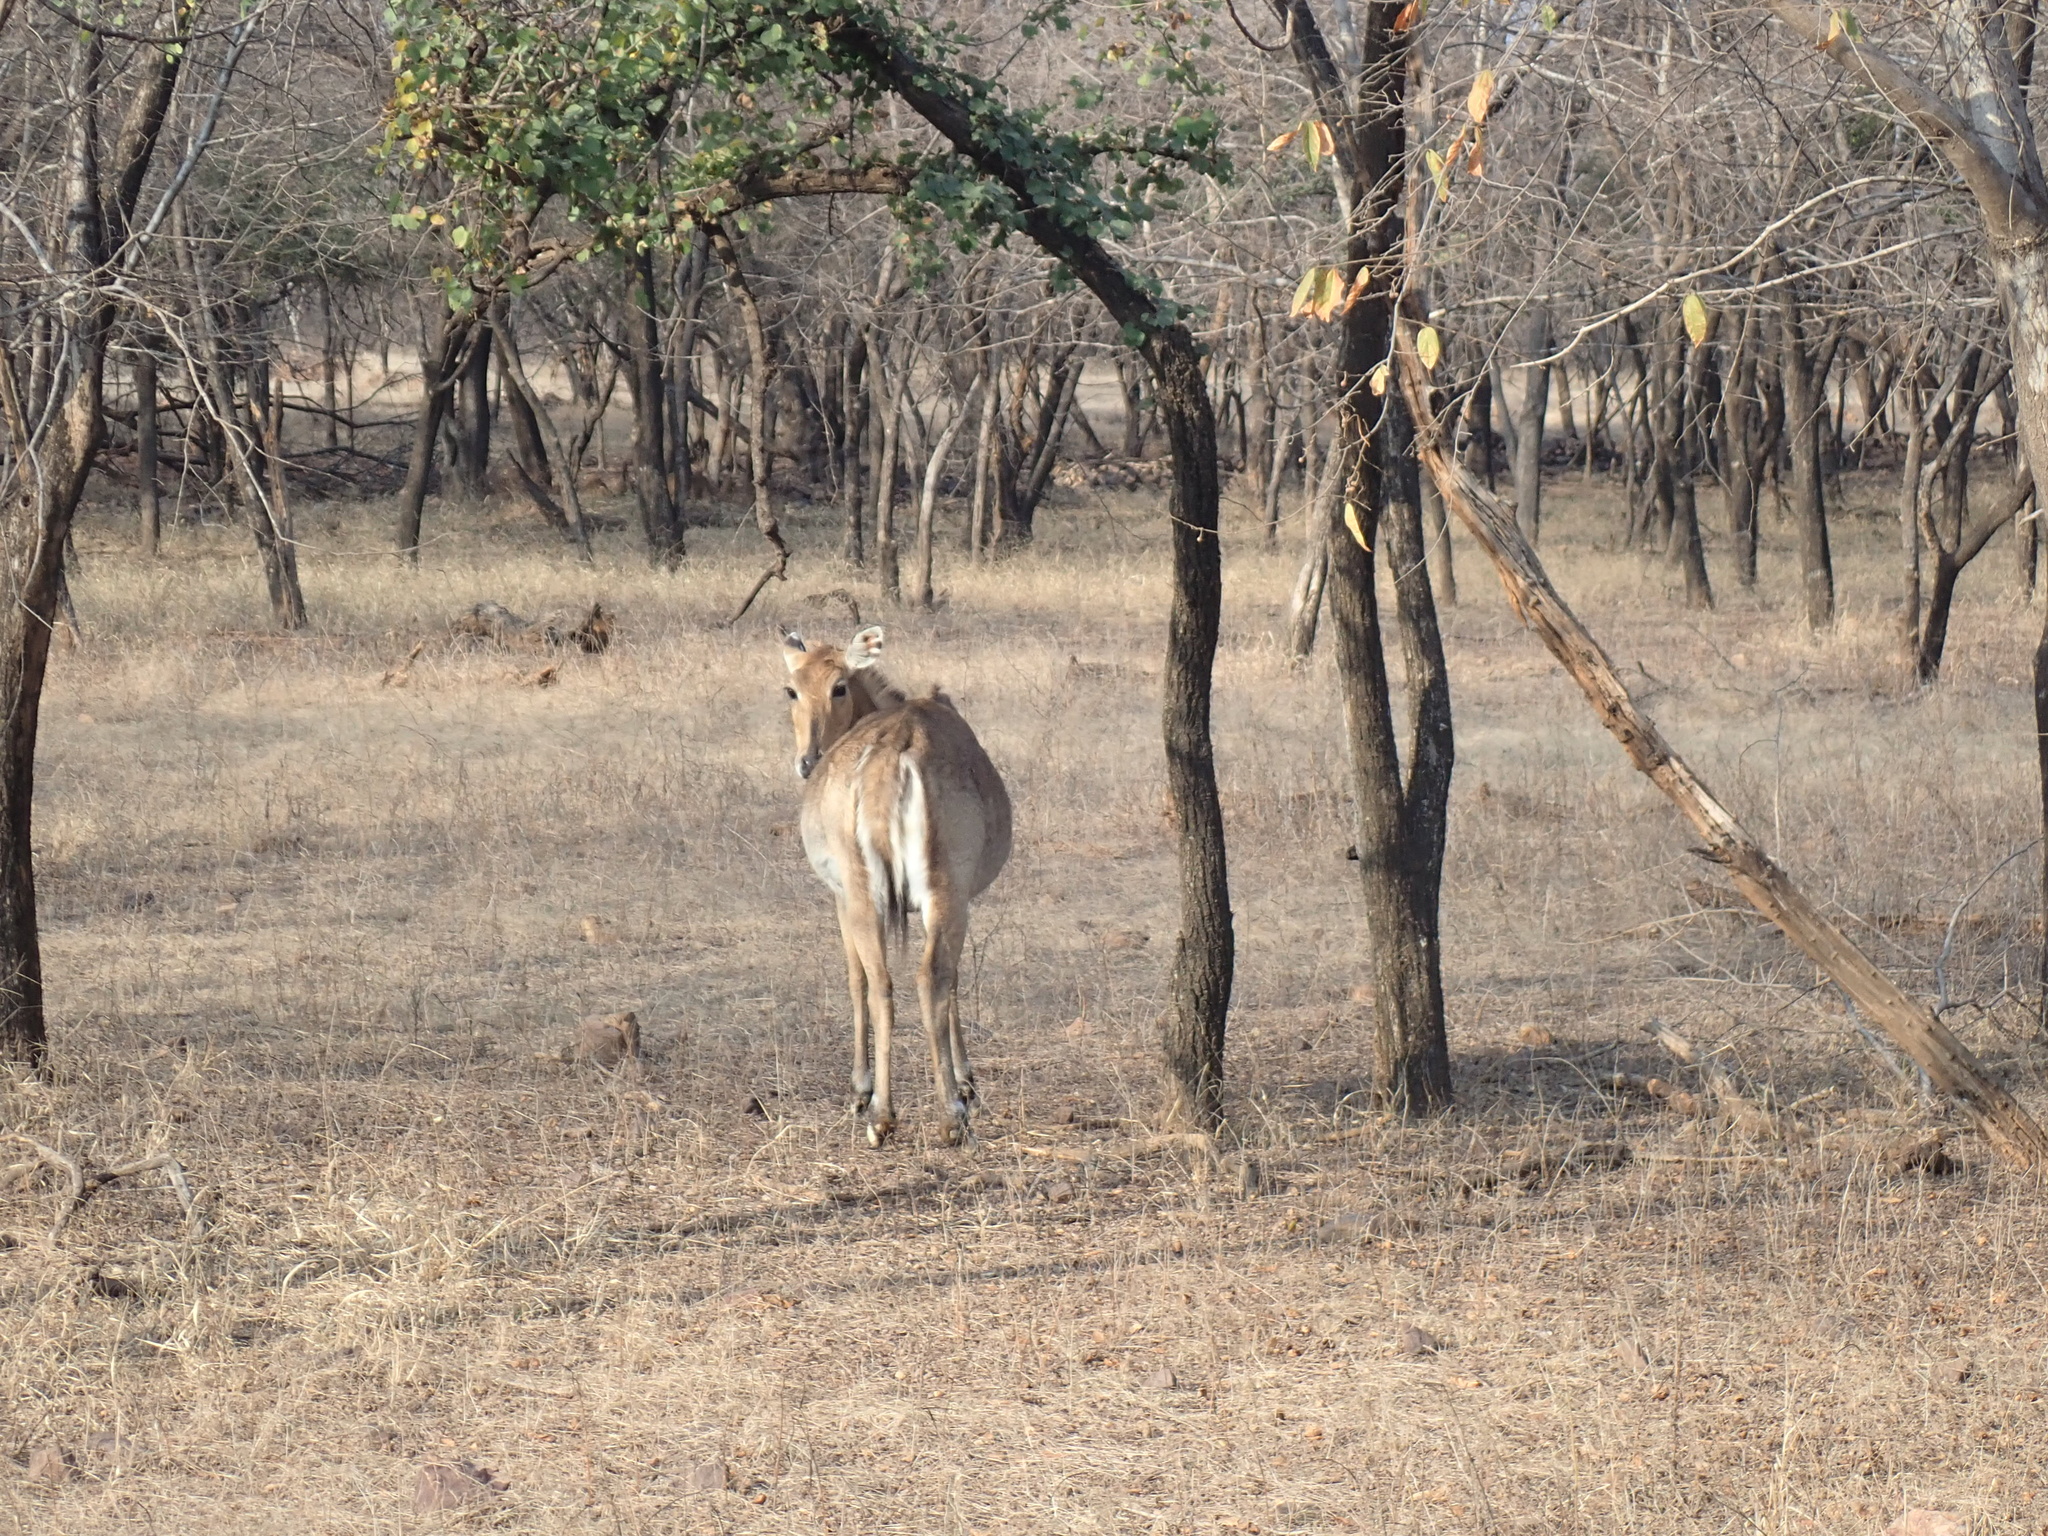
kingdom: Animalia
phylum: Chordata
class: Mammalia
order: Artiodactyla
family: Bovidae
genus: Boselaphus
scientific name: Boselaphus tragocamelus
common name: Nilgai
